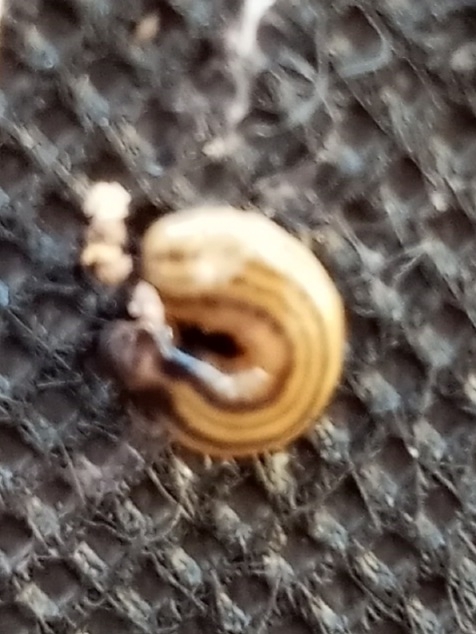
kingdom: Animalia
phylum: Platyhelminthes
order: Tricladida
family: Geoplanidae
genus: Bipalium
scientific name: Bipalium kewense
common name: Hammerhead flatworm
